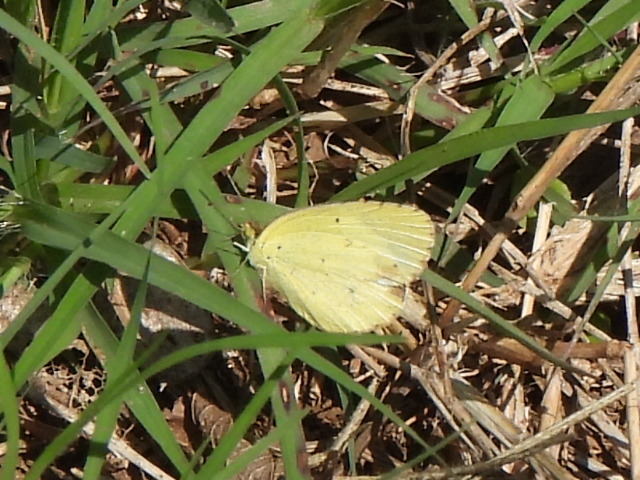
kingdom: Animalia
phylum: Arthropoda
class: Insecta
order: Lepidoptera
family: Pieridae
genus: Pyrisitia
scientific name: Pyrisitia lisa
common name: Little yellow
